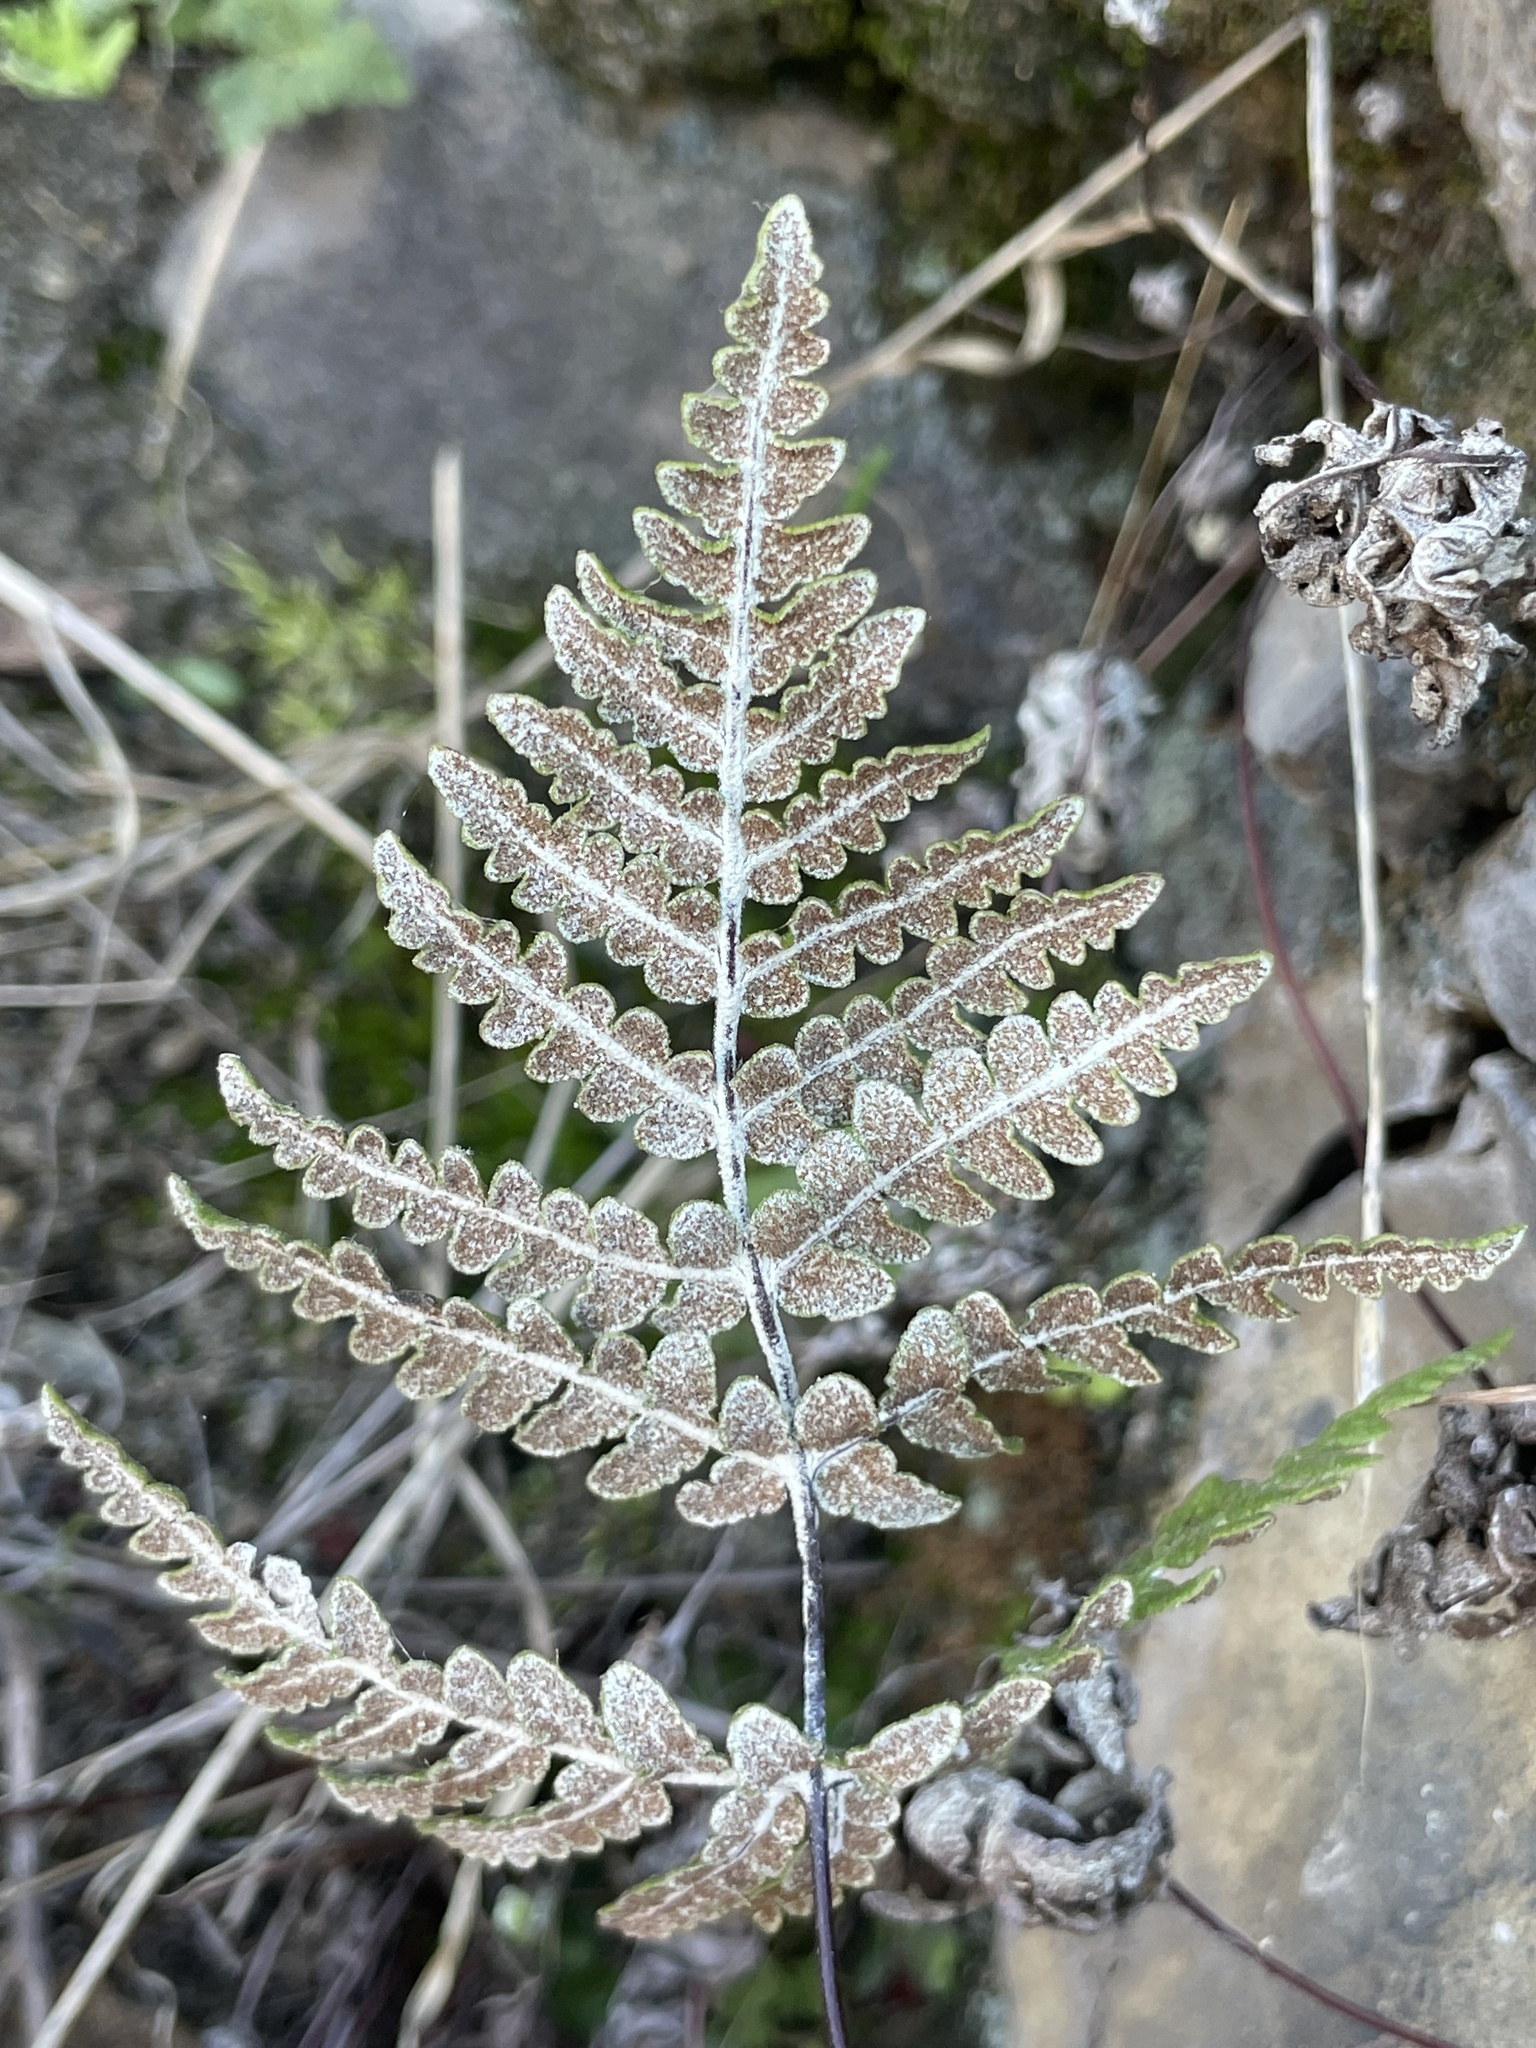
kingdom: Plantae
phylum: Tracheophyta
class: Polypodiopsida
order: Polypodiales
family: Pteridaceae
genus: Pentagramma
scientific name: Pentagramma glanduloviscida
